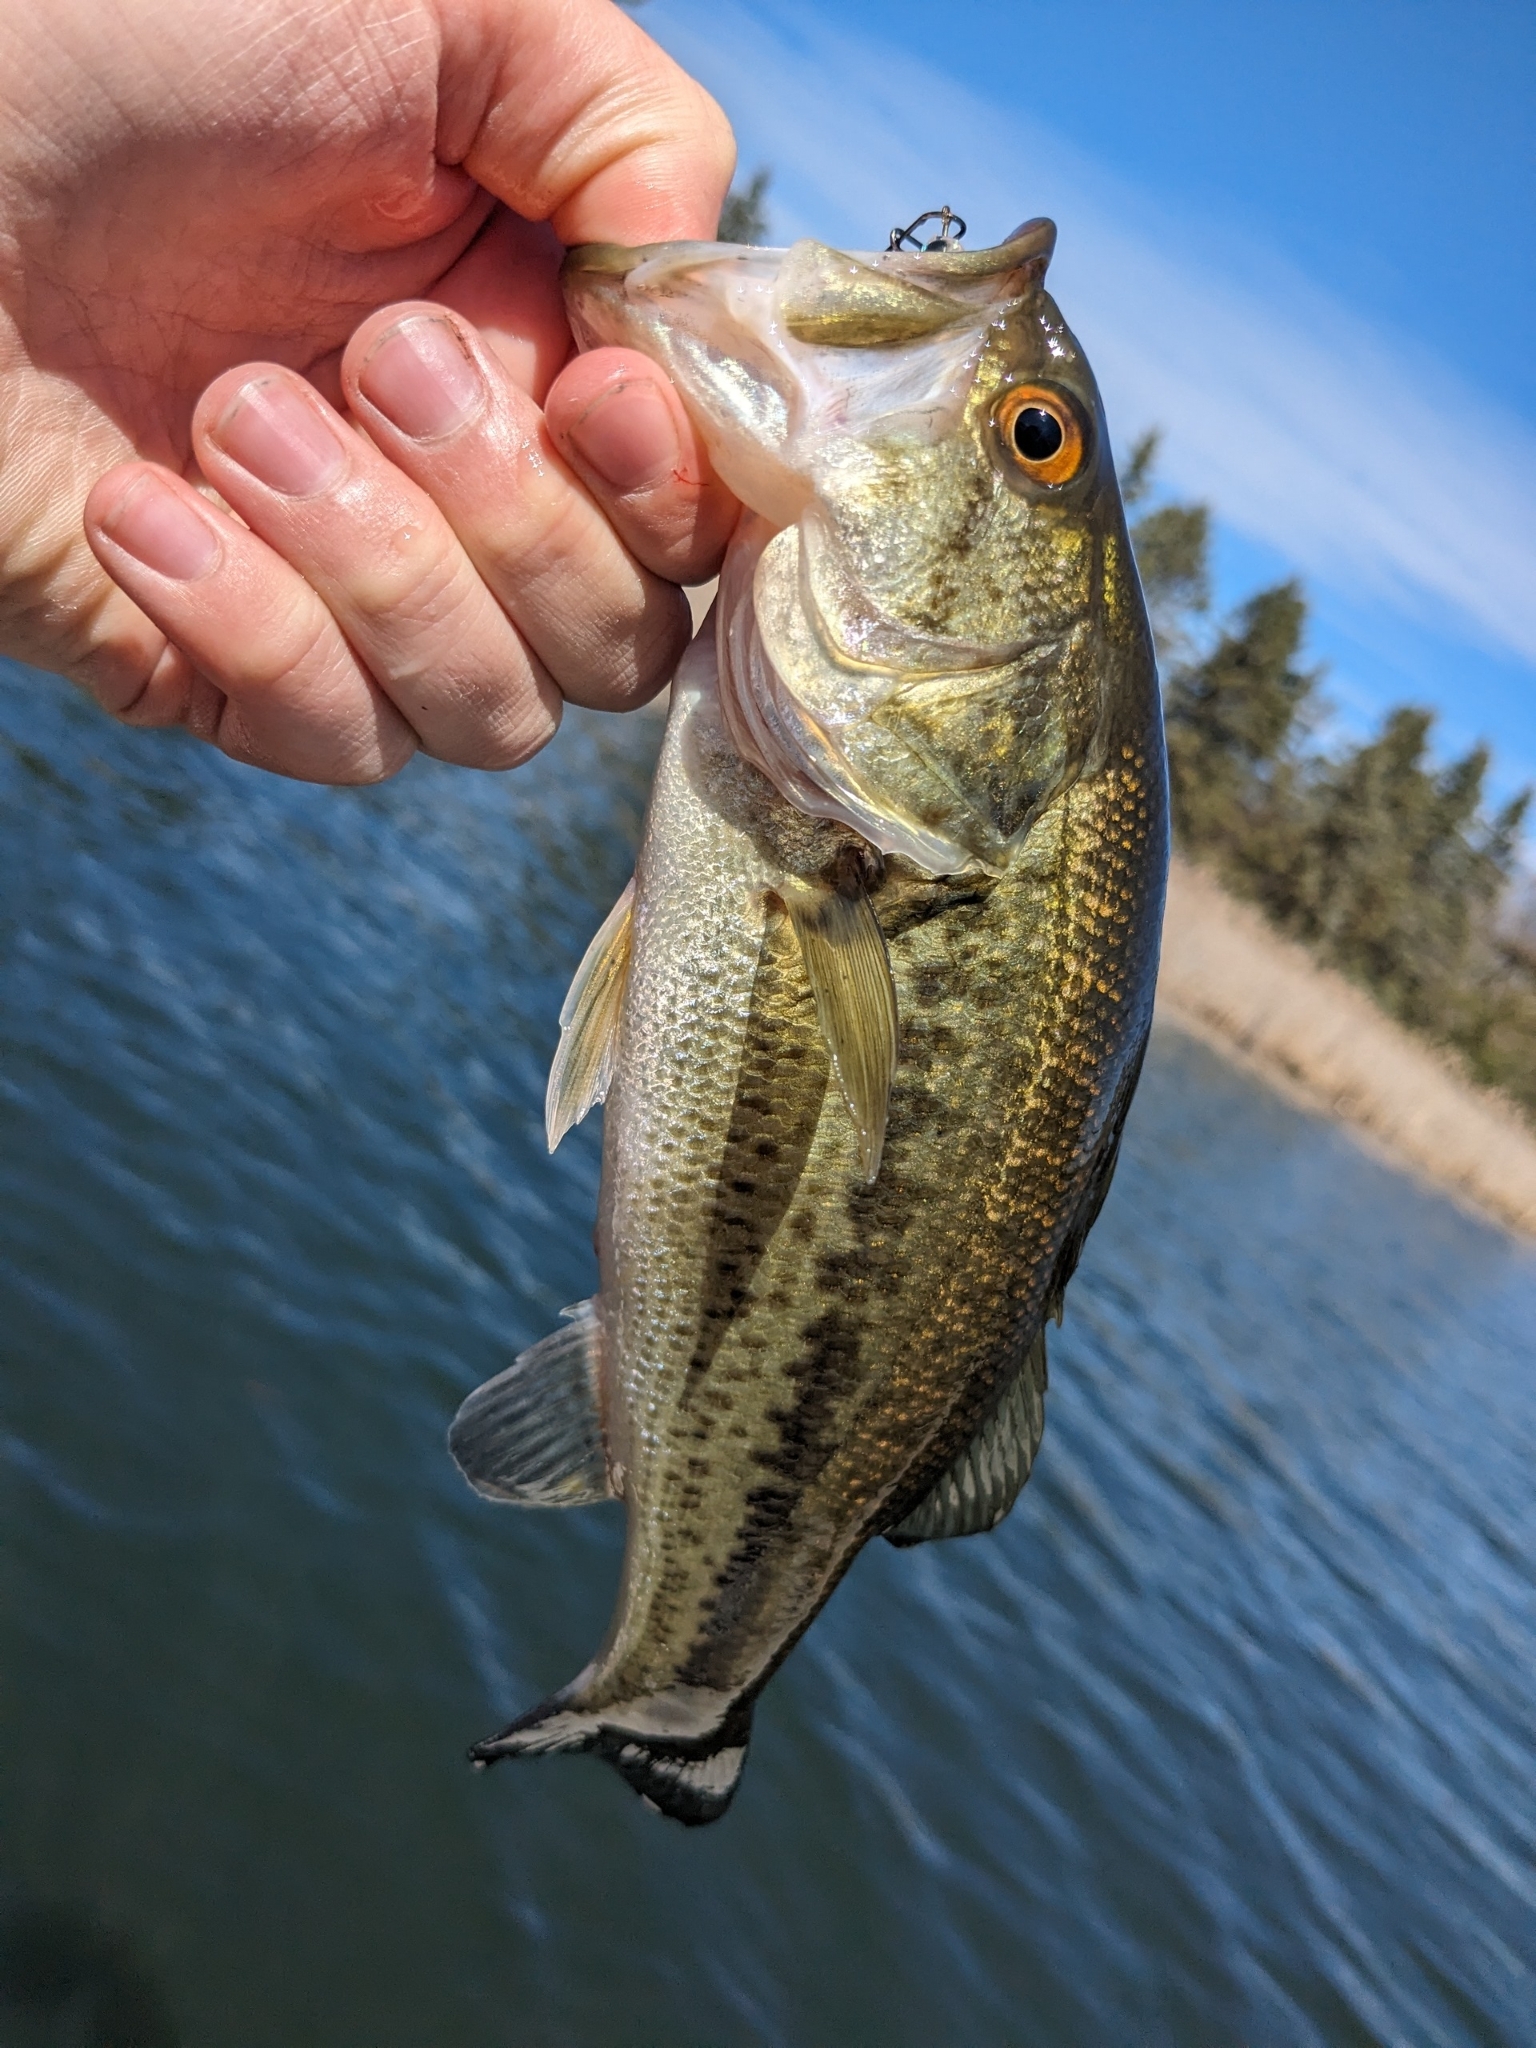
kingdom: Animalia
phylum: Chordata
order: Perciformes
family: Centrarchidae
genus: Micropterus
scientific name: Micropterus
